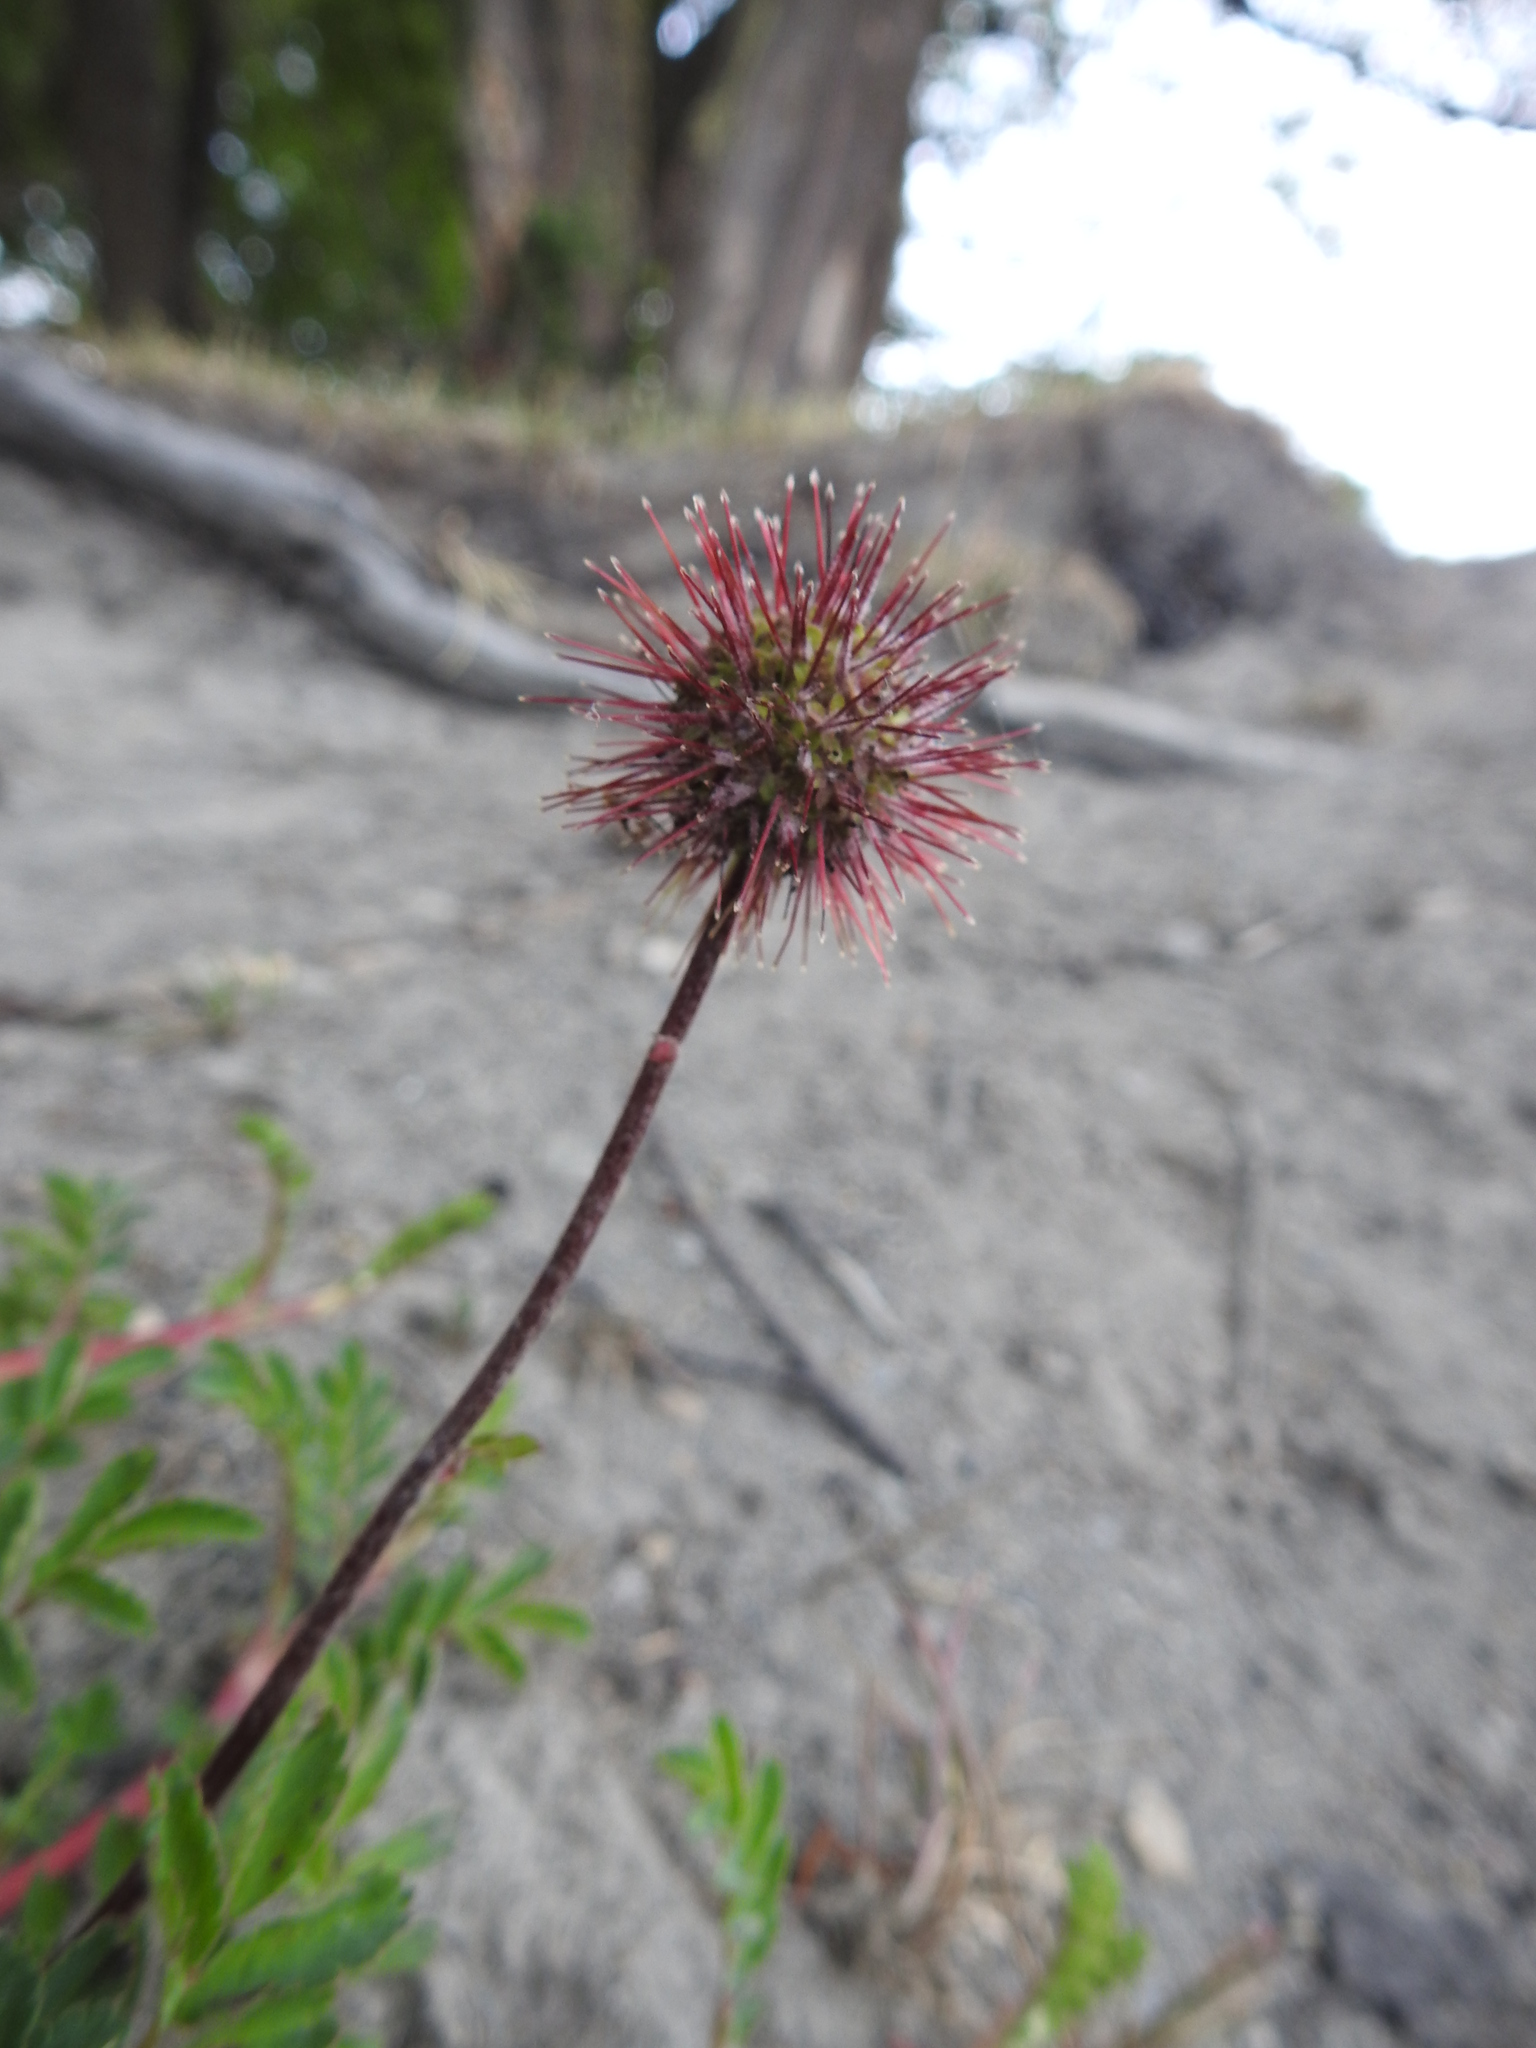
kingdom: Plantae
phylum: Tracheophyta
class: Magnoliopsida
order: Rosales
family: Rosaceae
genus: Acaena
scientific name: Acaena magellanica
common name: New zealand burr
